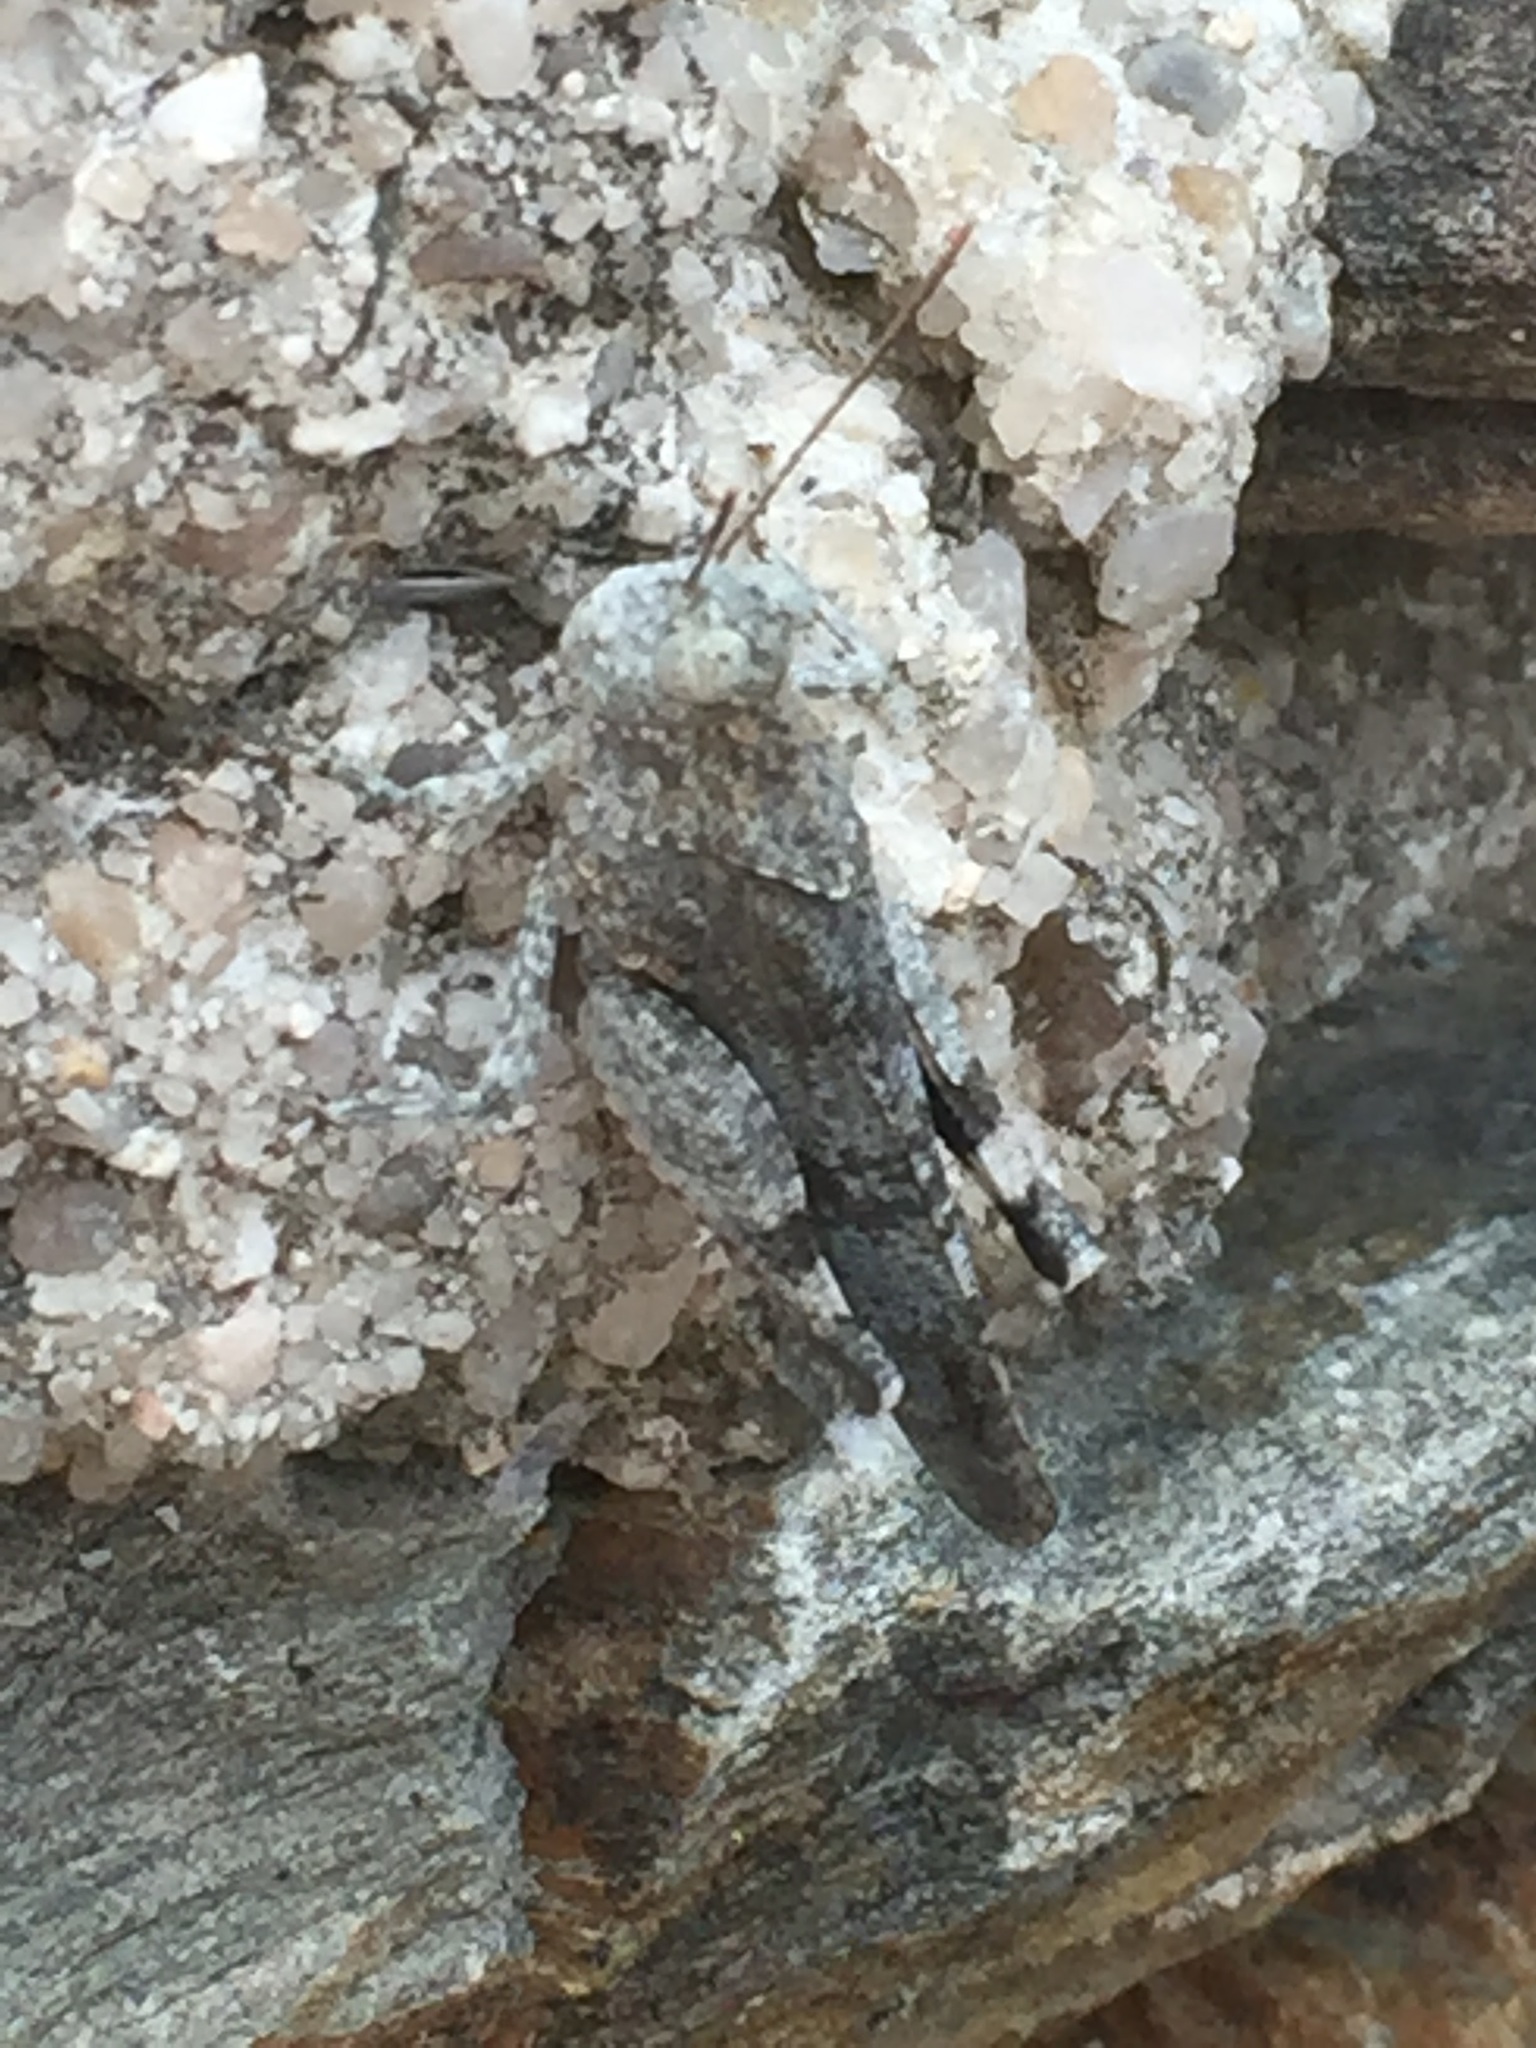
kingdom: Animalia
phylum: Arthropoda
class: Insecta
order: Orthoptera
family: Acrididae
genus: Oedipoda
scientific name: Oedipoda caerulescens
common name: Blue-winged grasshopper
